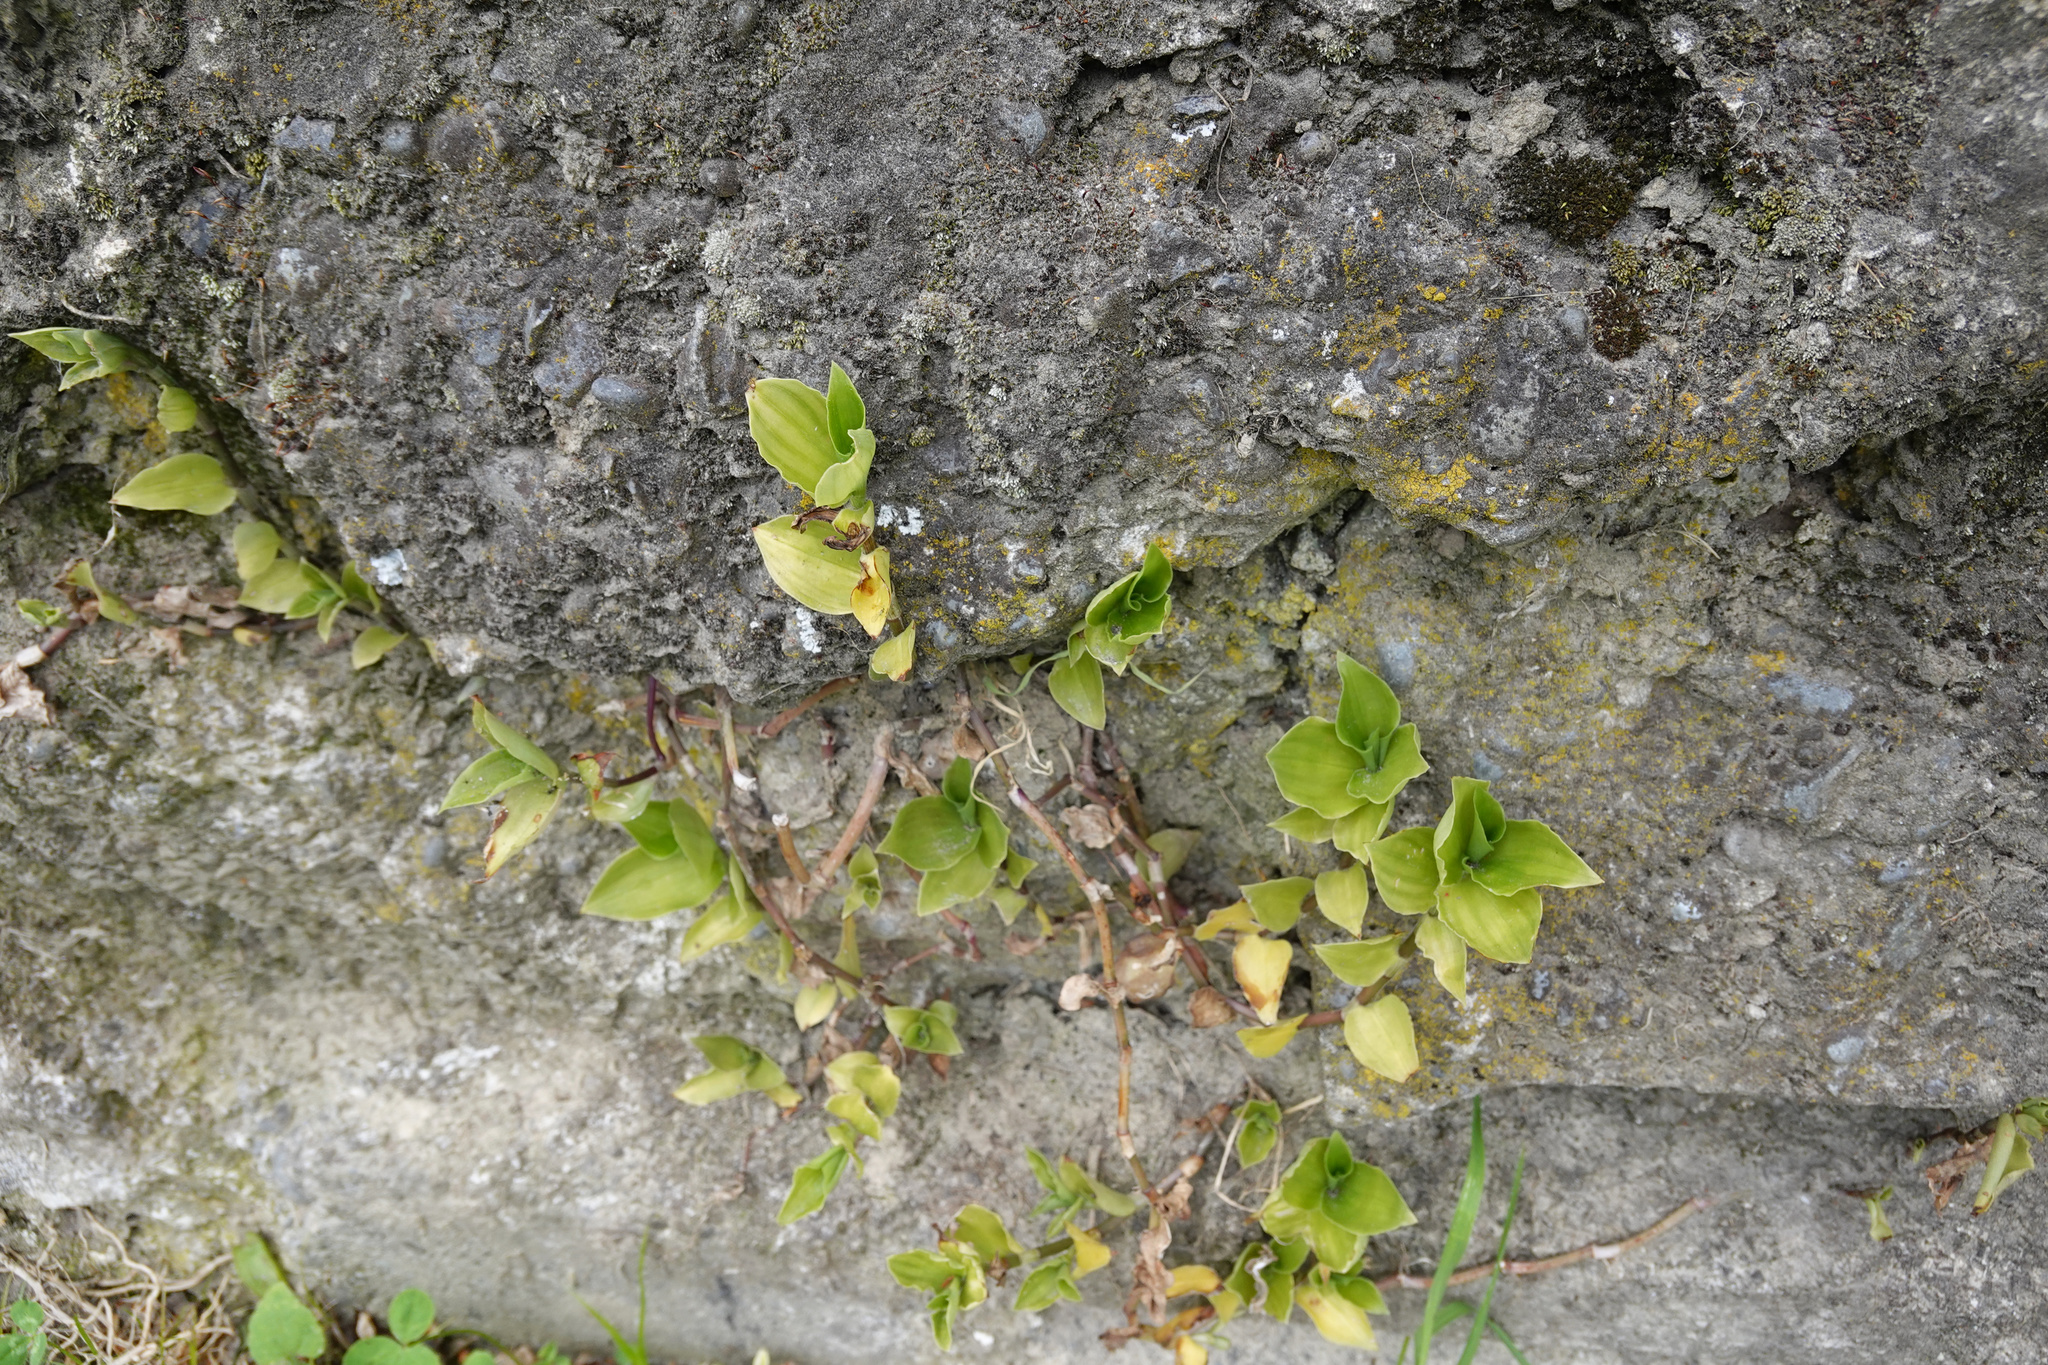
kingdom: Plantae
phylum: Tracheophyta
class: Liliopsida
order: Commelinales
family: Commelinaceae
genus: Tradescantia
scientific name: Tradescantia fluminensis
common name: Wandering-jew
